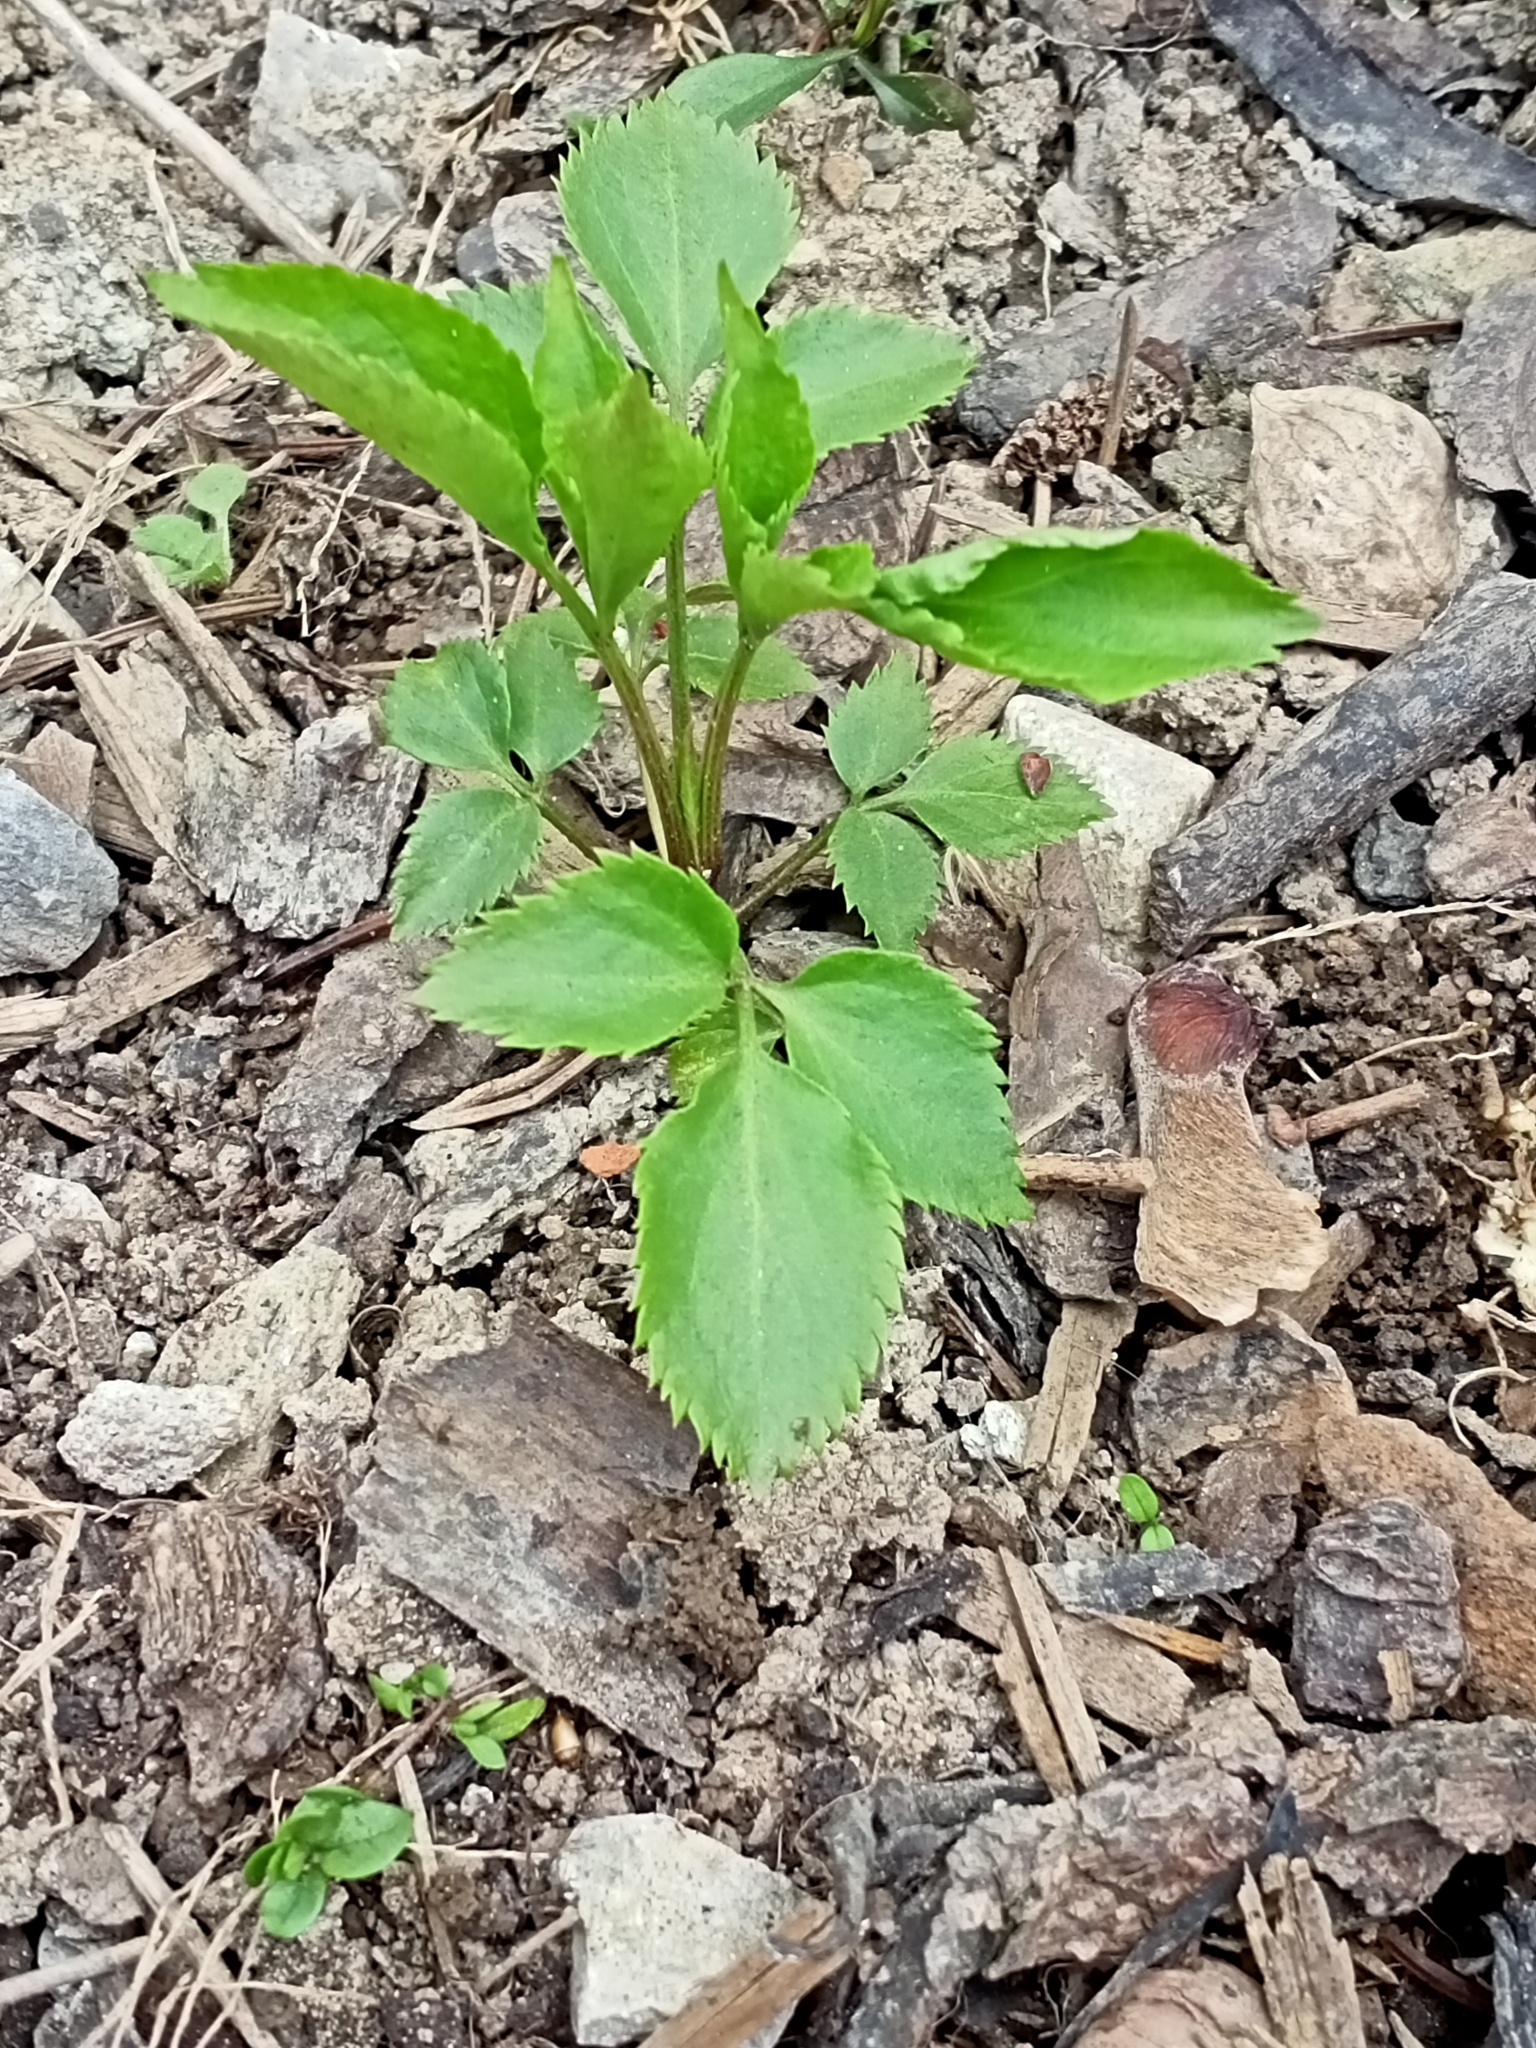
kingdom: Plantae
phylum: Tracheophyta
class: Magnoliopsida
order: Dipsacales
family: Viburnaceae
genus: Sambucus
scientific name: Sambucus nigra
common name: Elder
